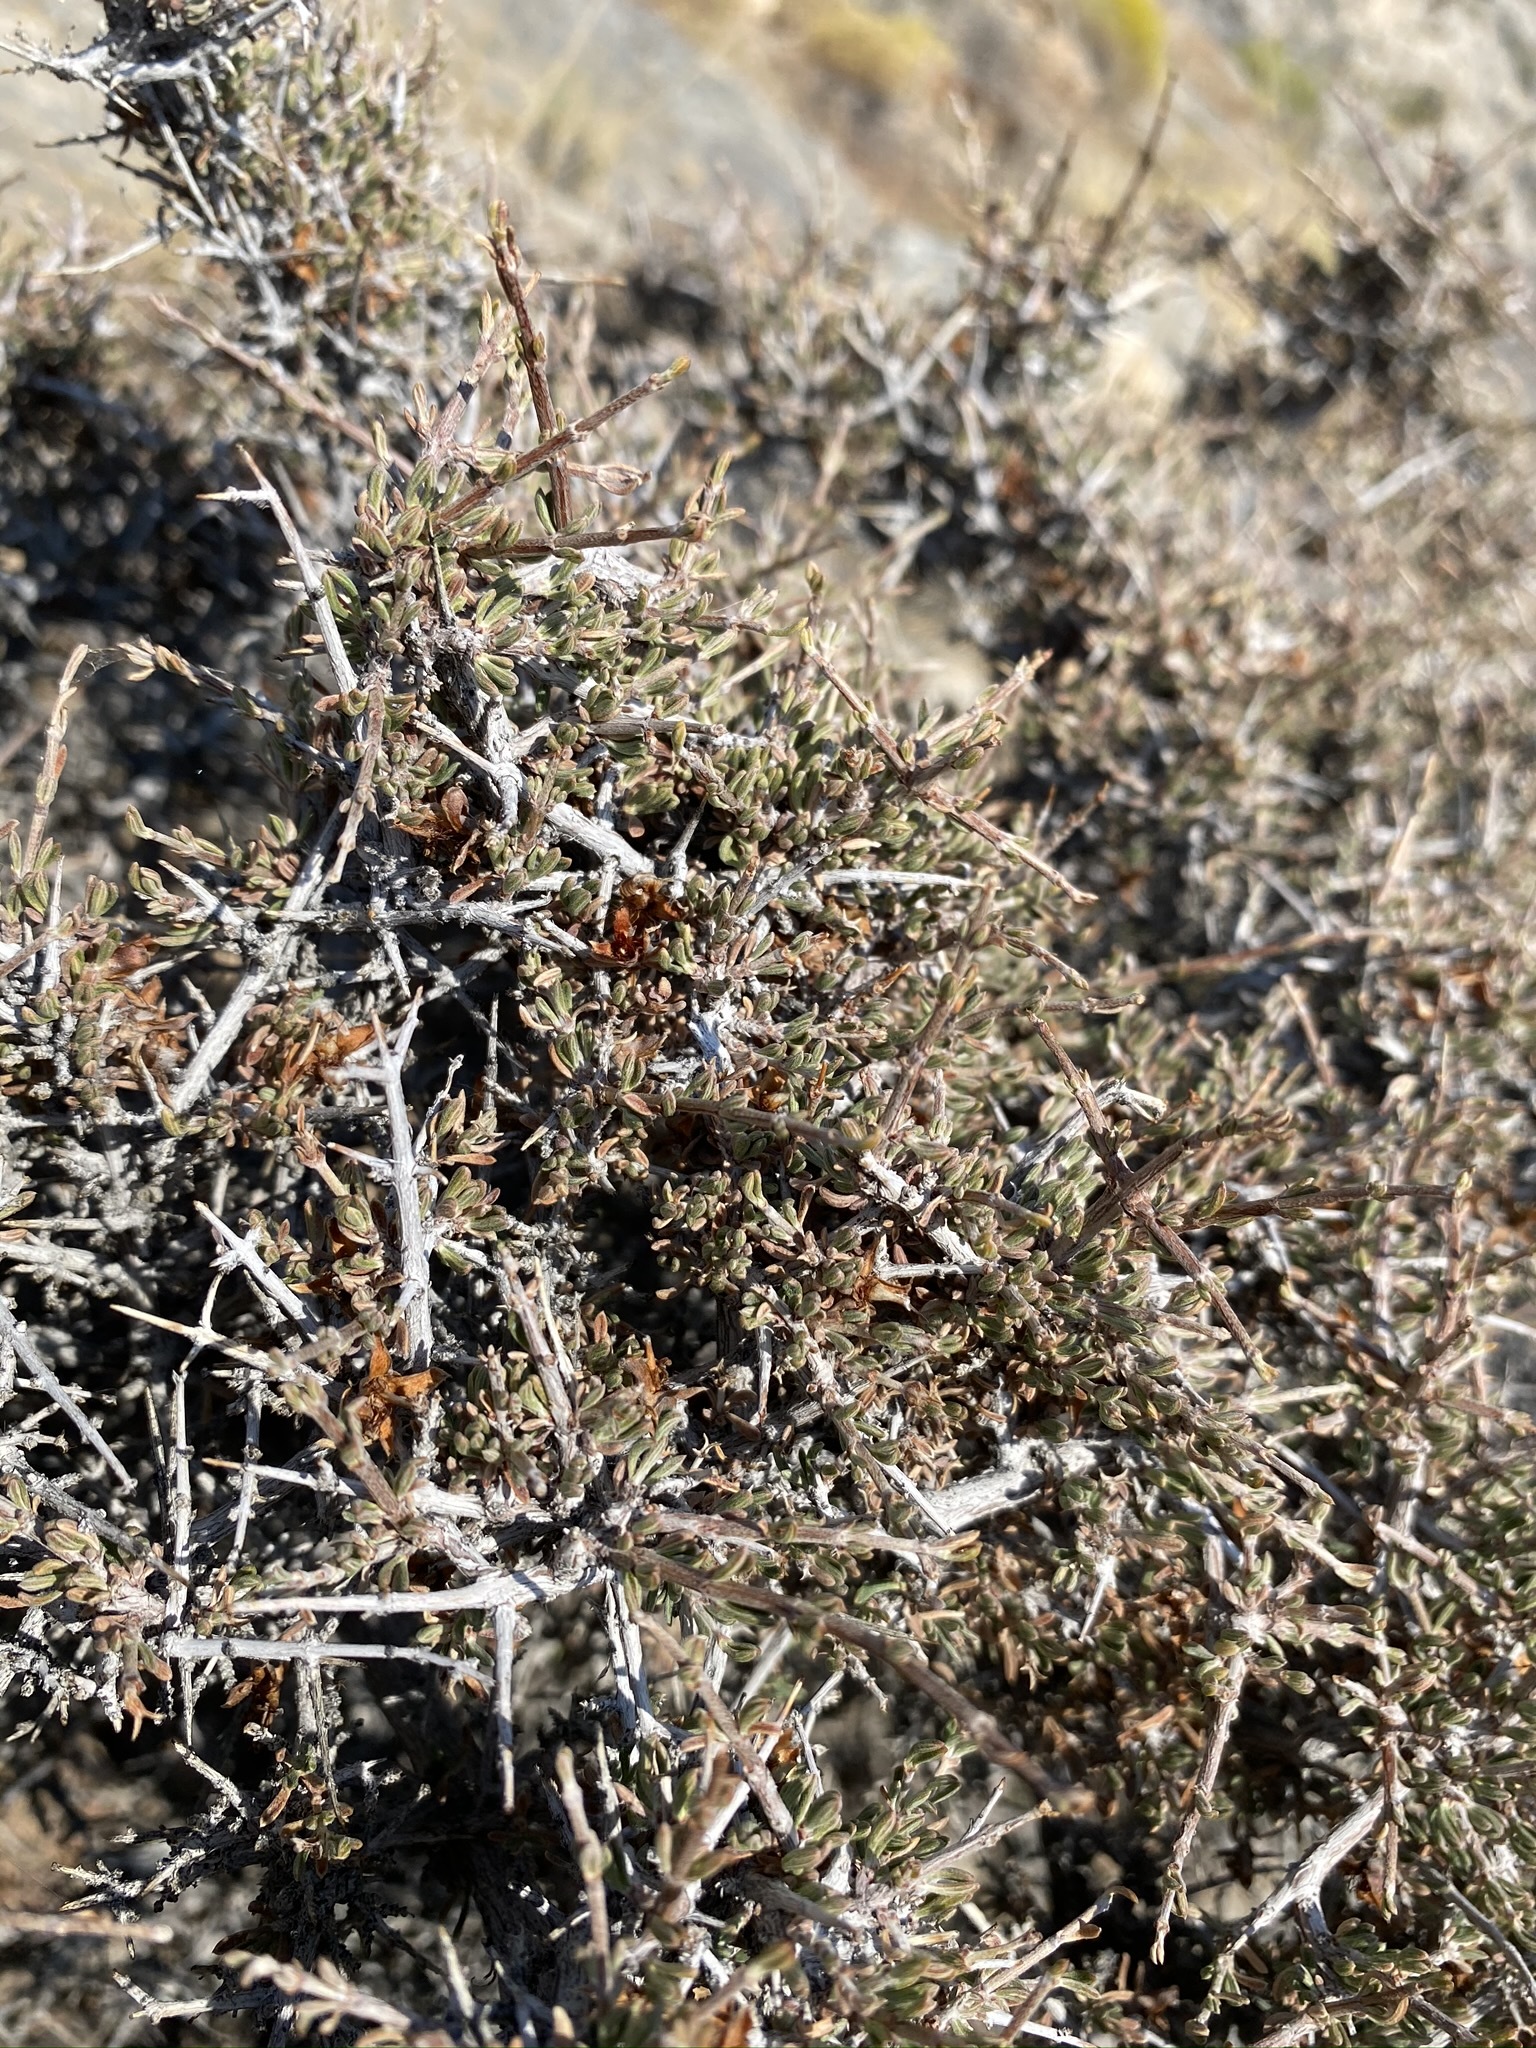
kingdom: Plantae
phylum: Tracheophyta
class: Magnoliopsida
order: Rosales
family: Rosaceae
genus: Coleogyne
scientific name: Coleogyne ramosissima
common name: Blackbrush
